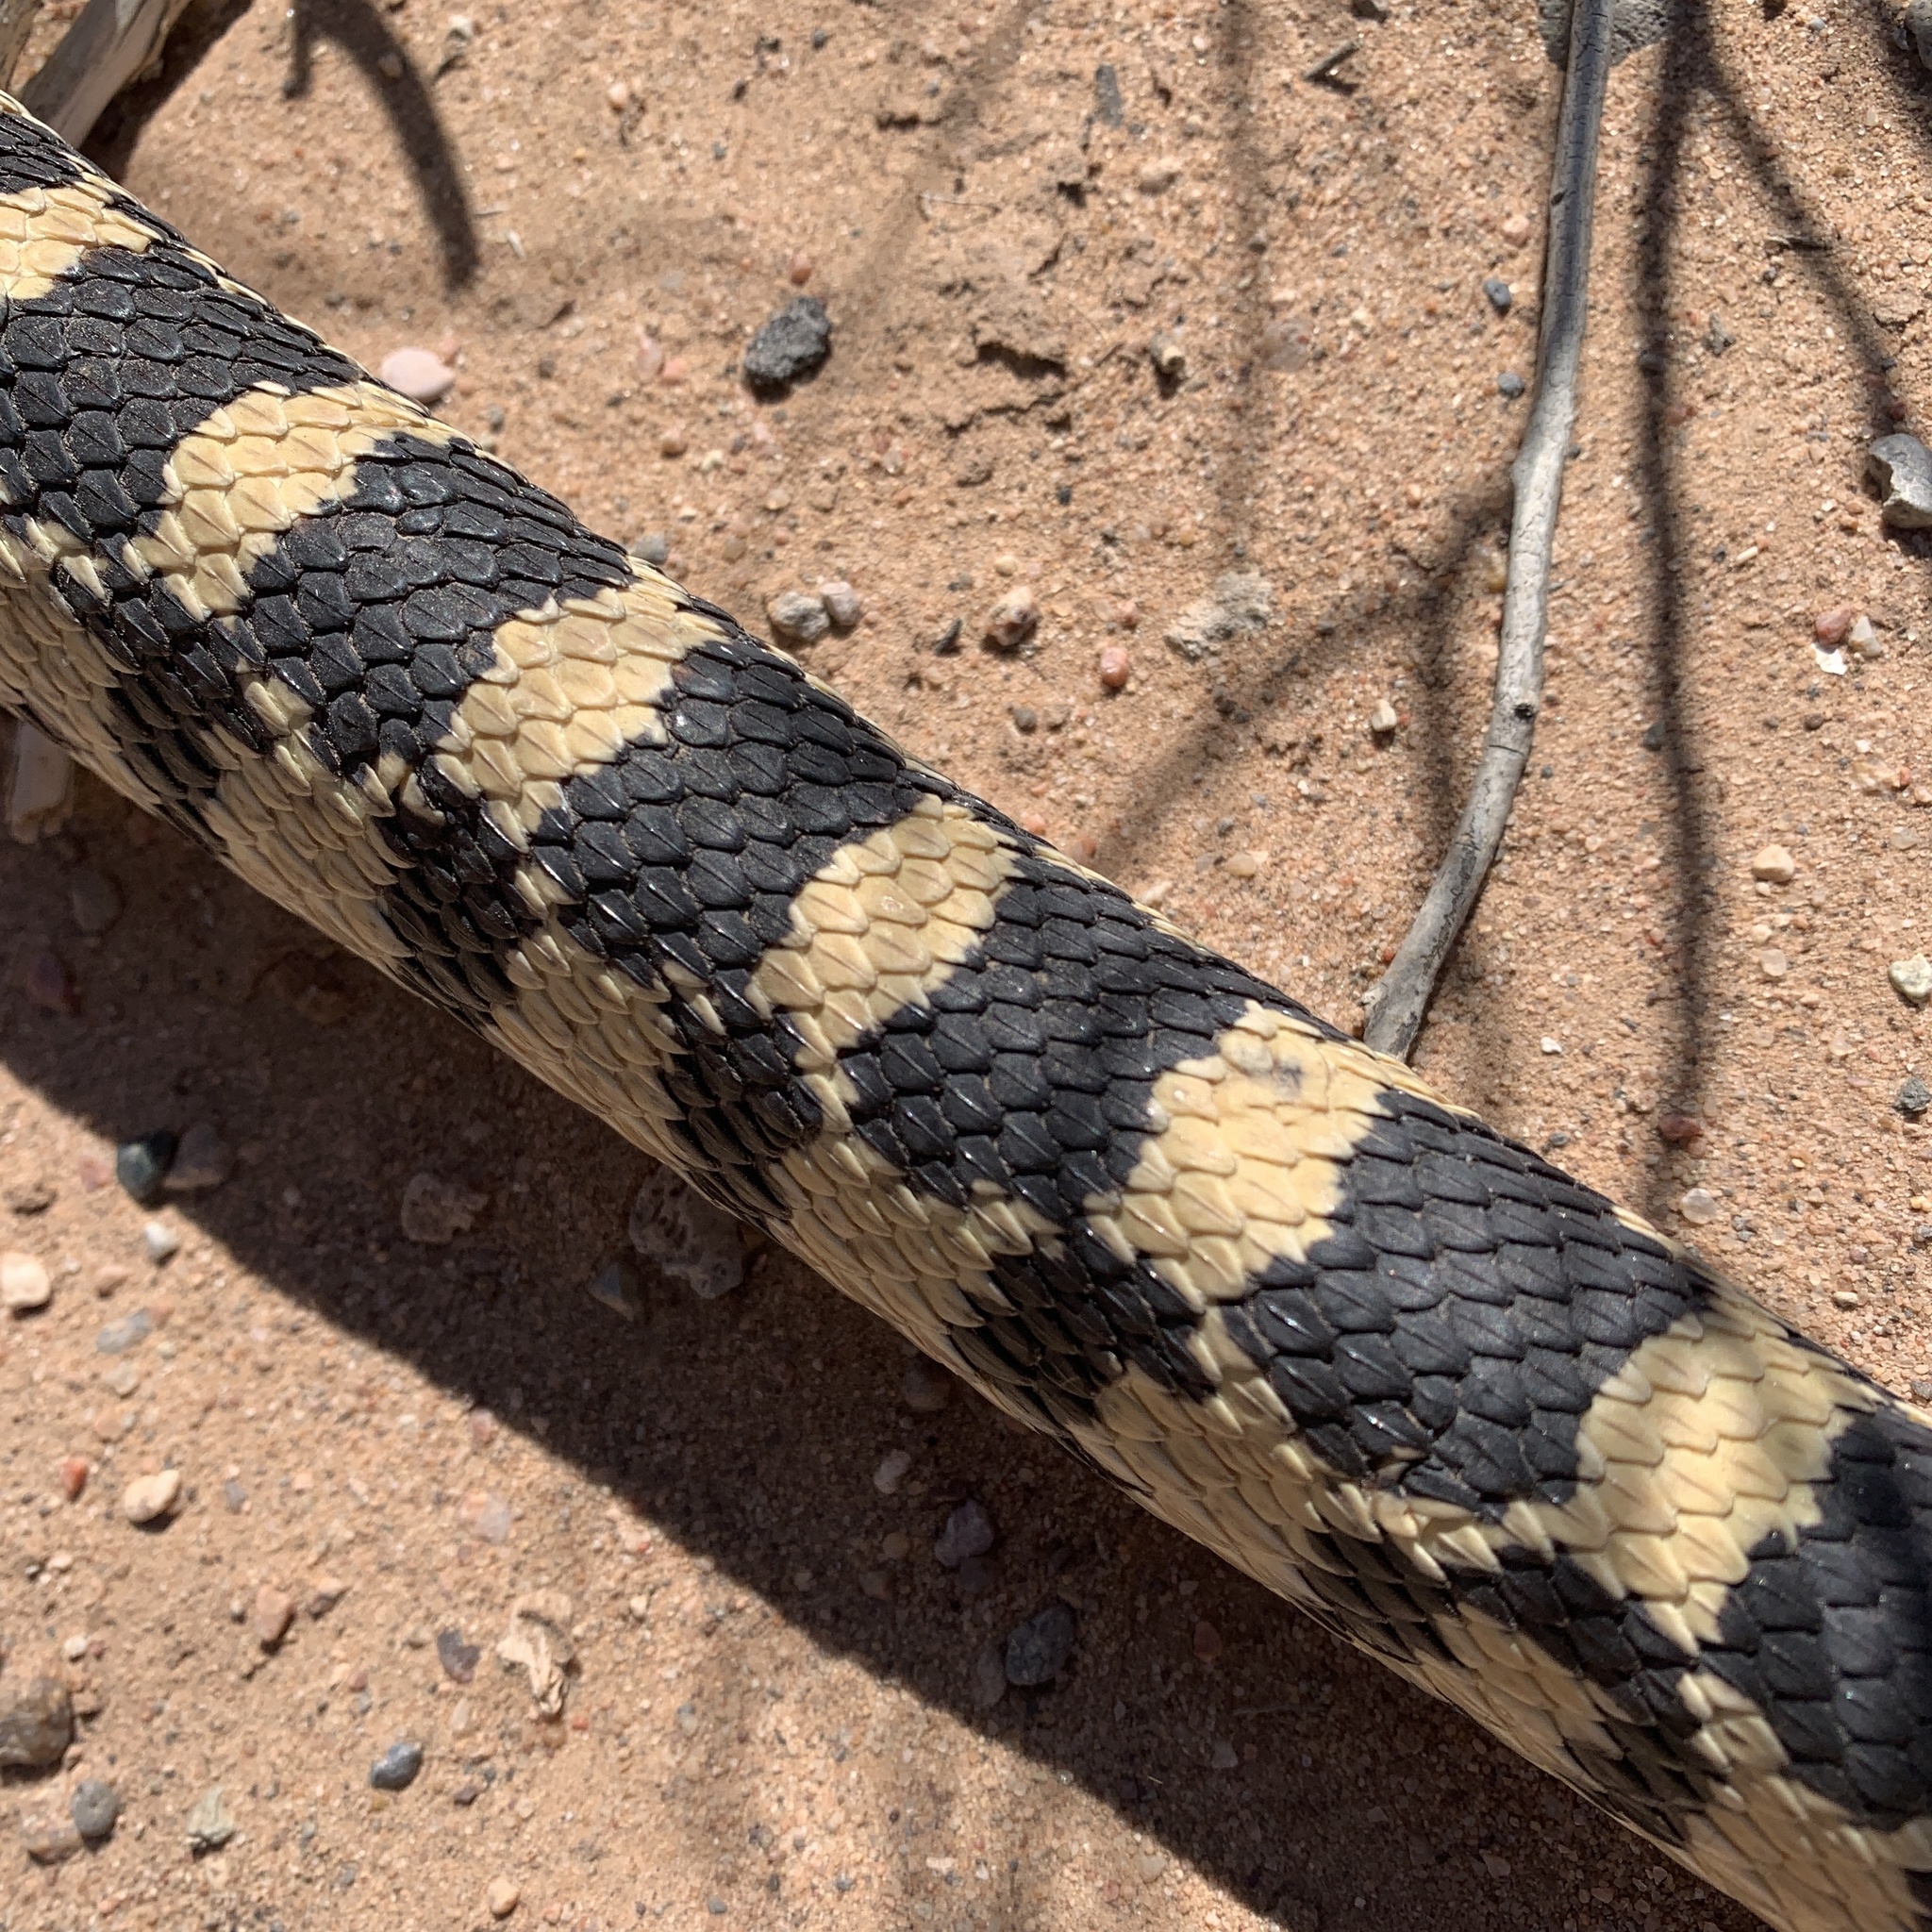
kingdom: Animalia
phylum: Chordata
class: Squamata
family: Colubridae
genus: Pituophis
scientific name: Pituophis catenifer
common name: Gopher snake
